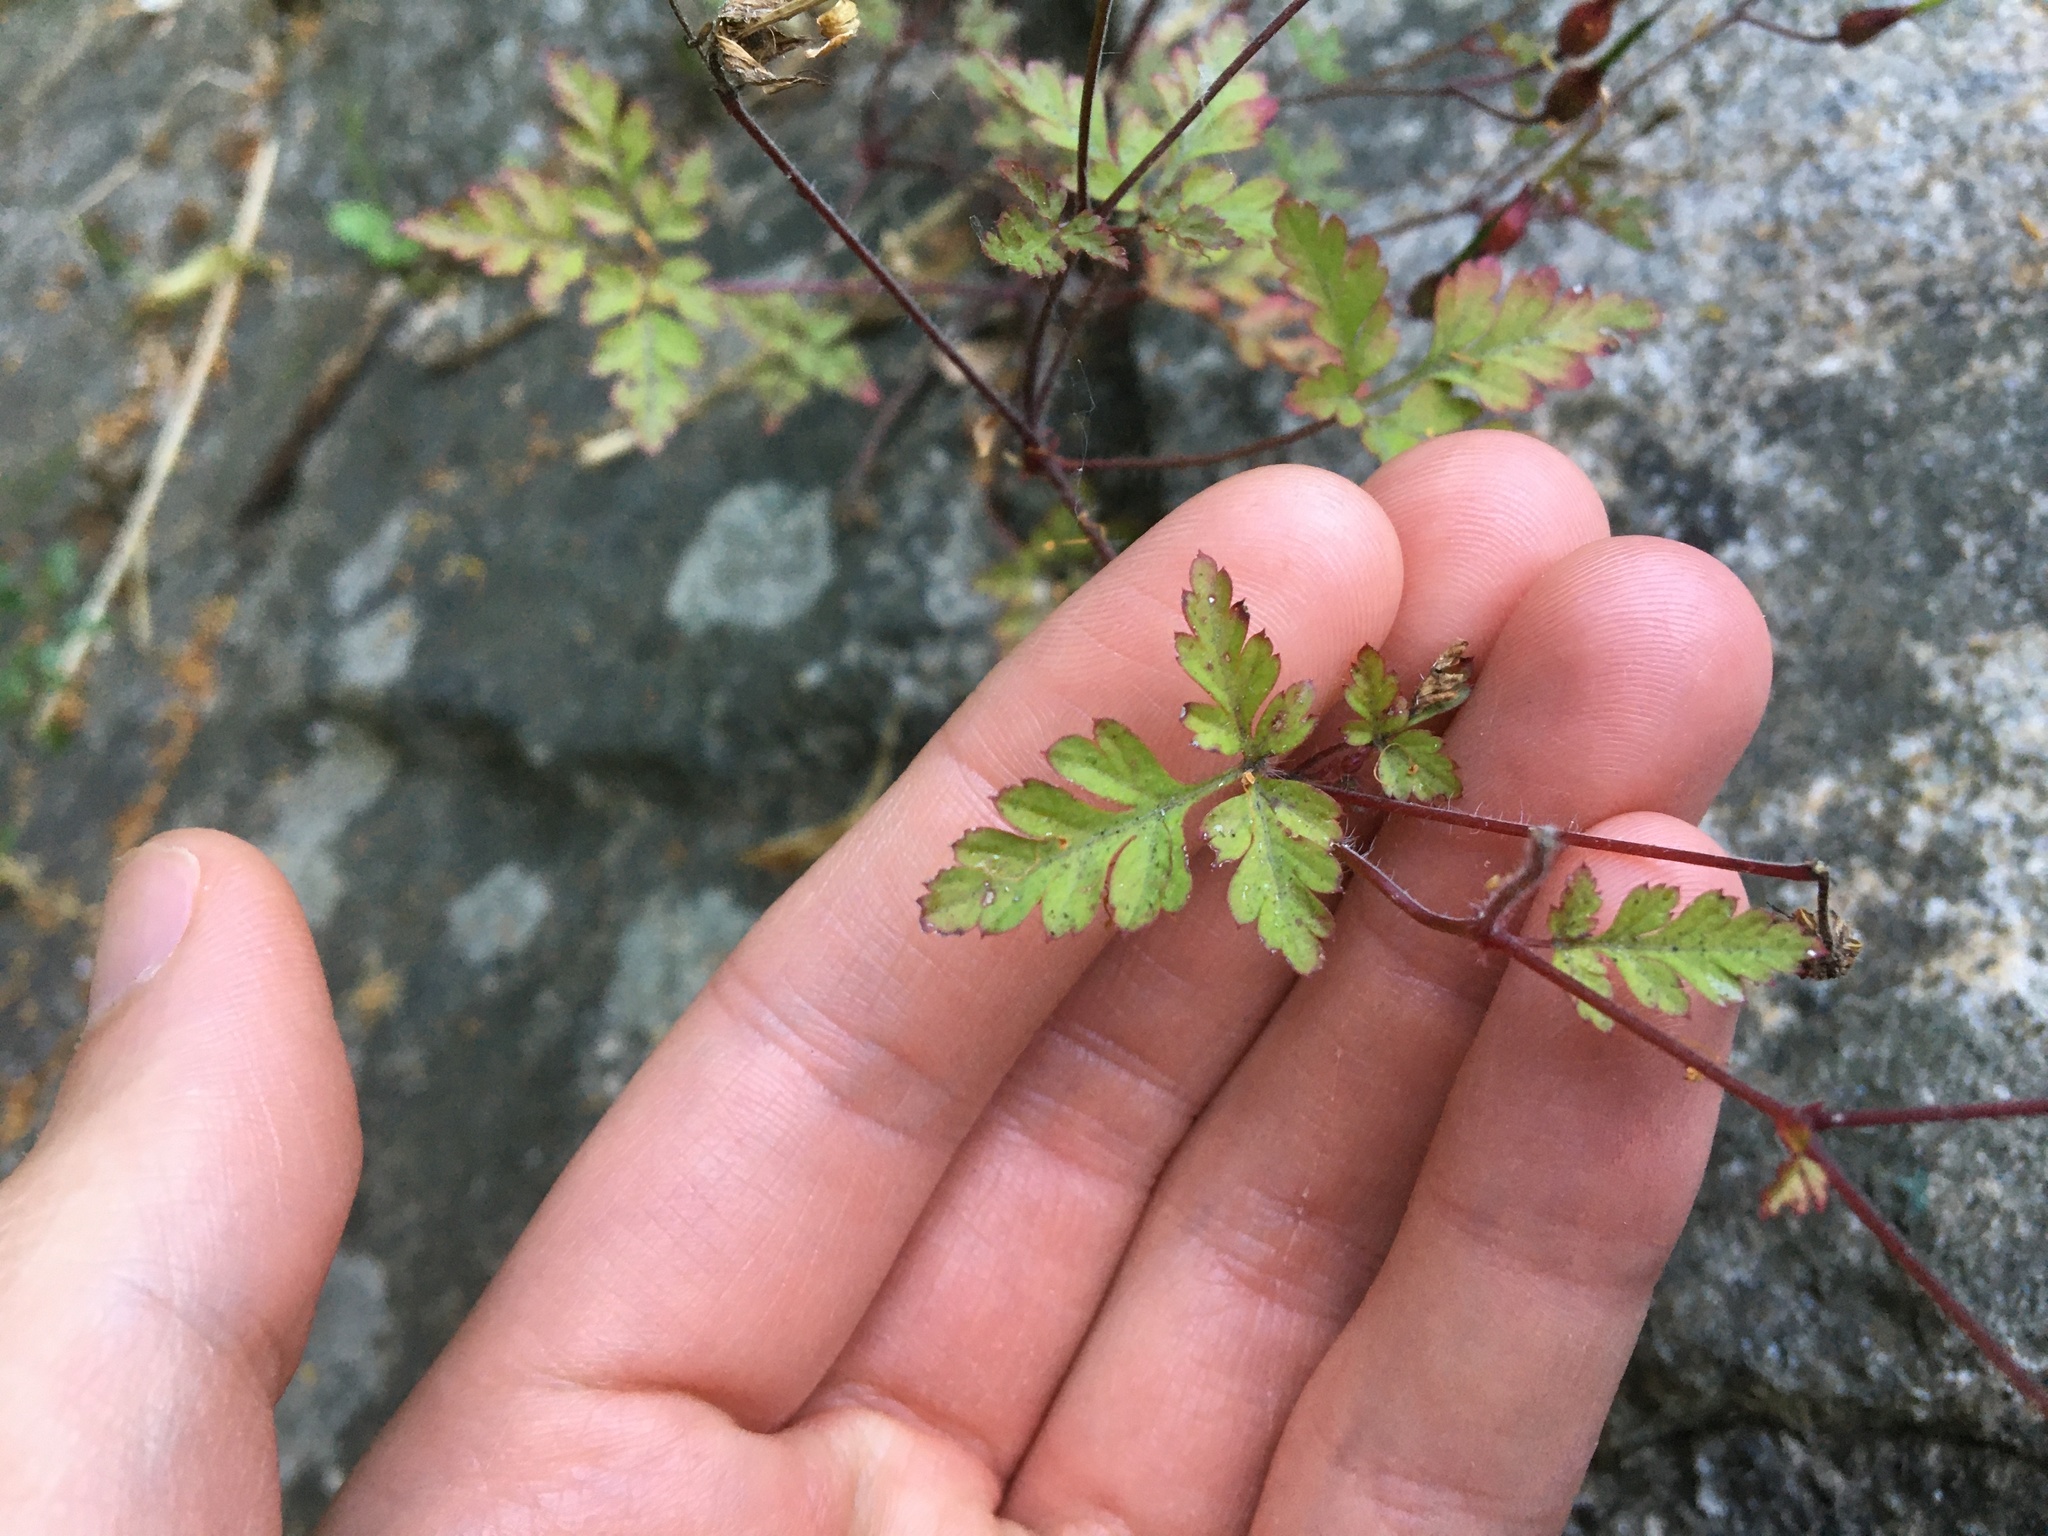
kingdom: Plantae
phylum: Tracheophyta
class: Magnoliopsida
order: Geraniales
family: Geraniaceae
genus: Geranium
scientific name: Geranium robertianum
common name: Herb-robert
